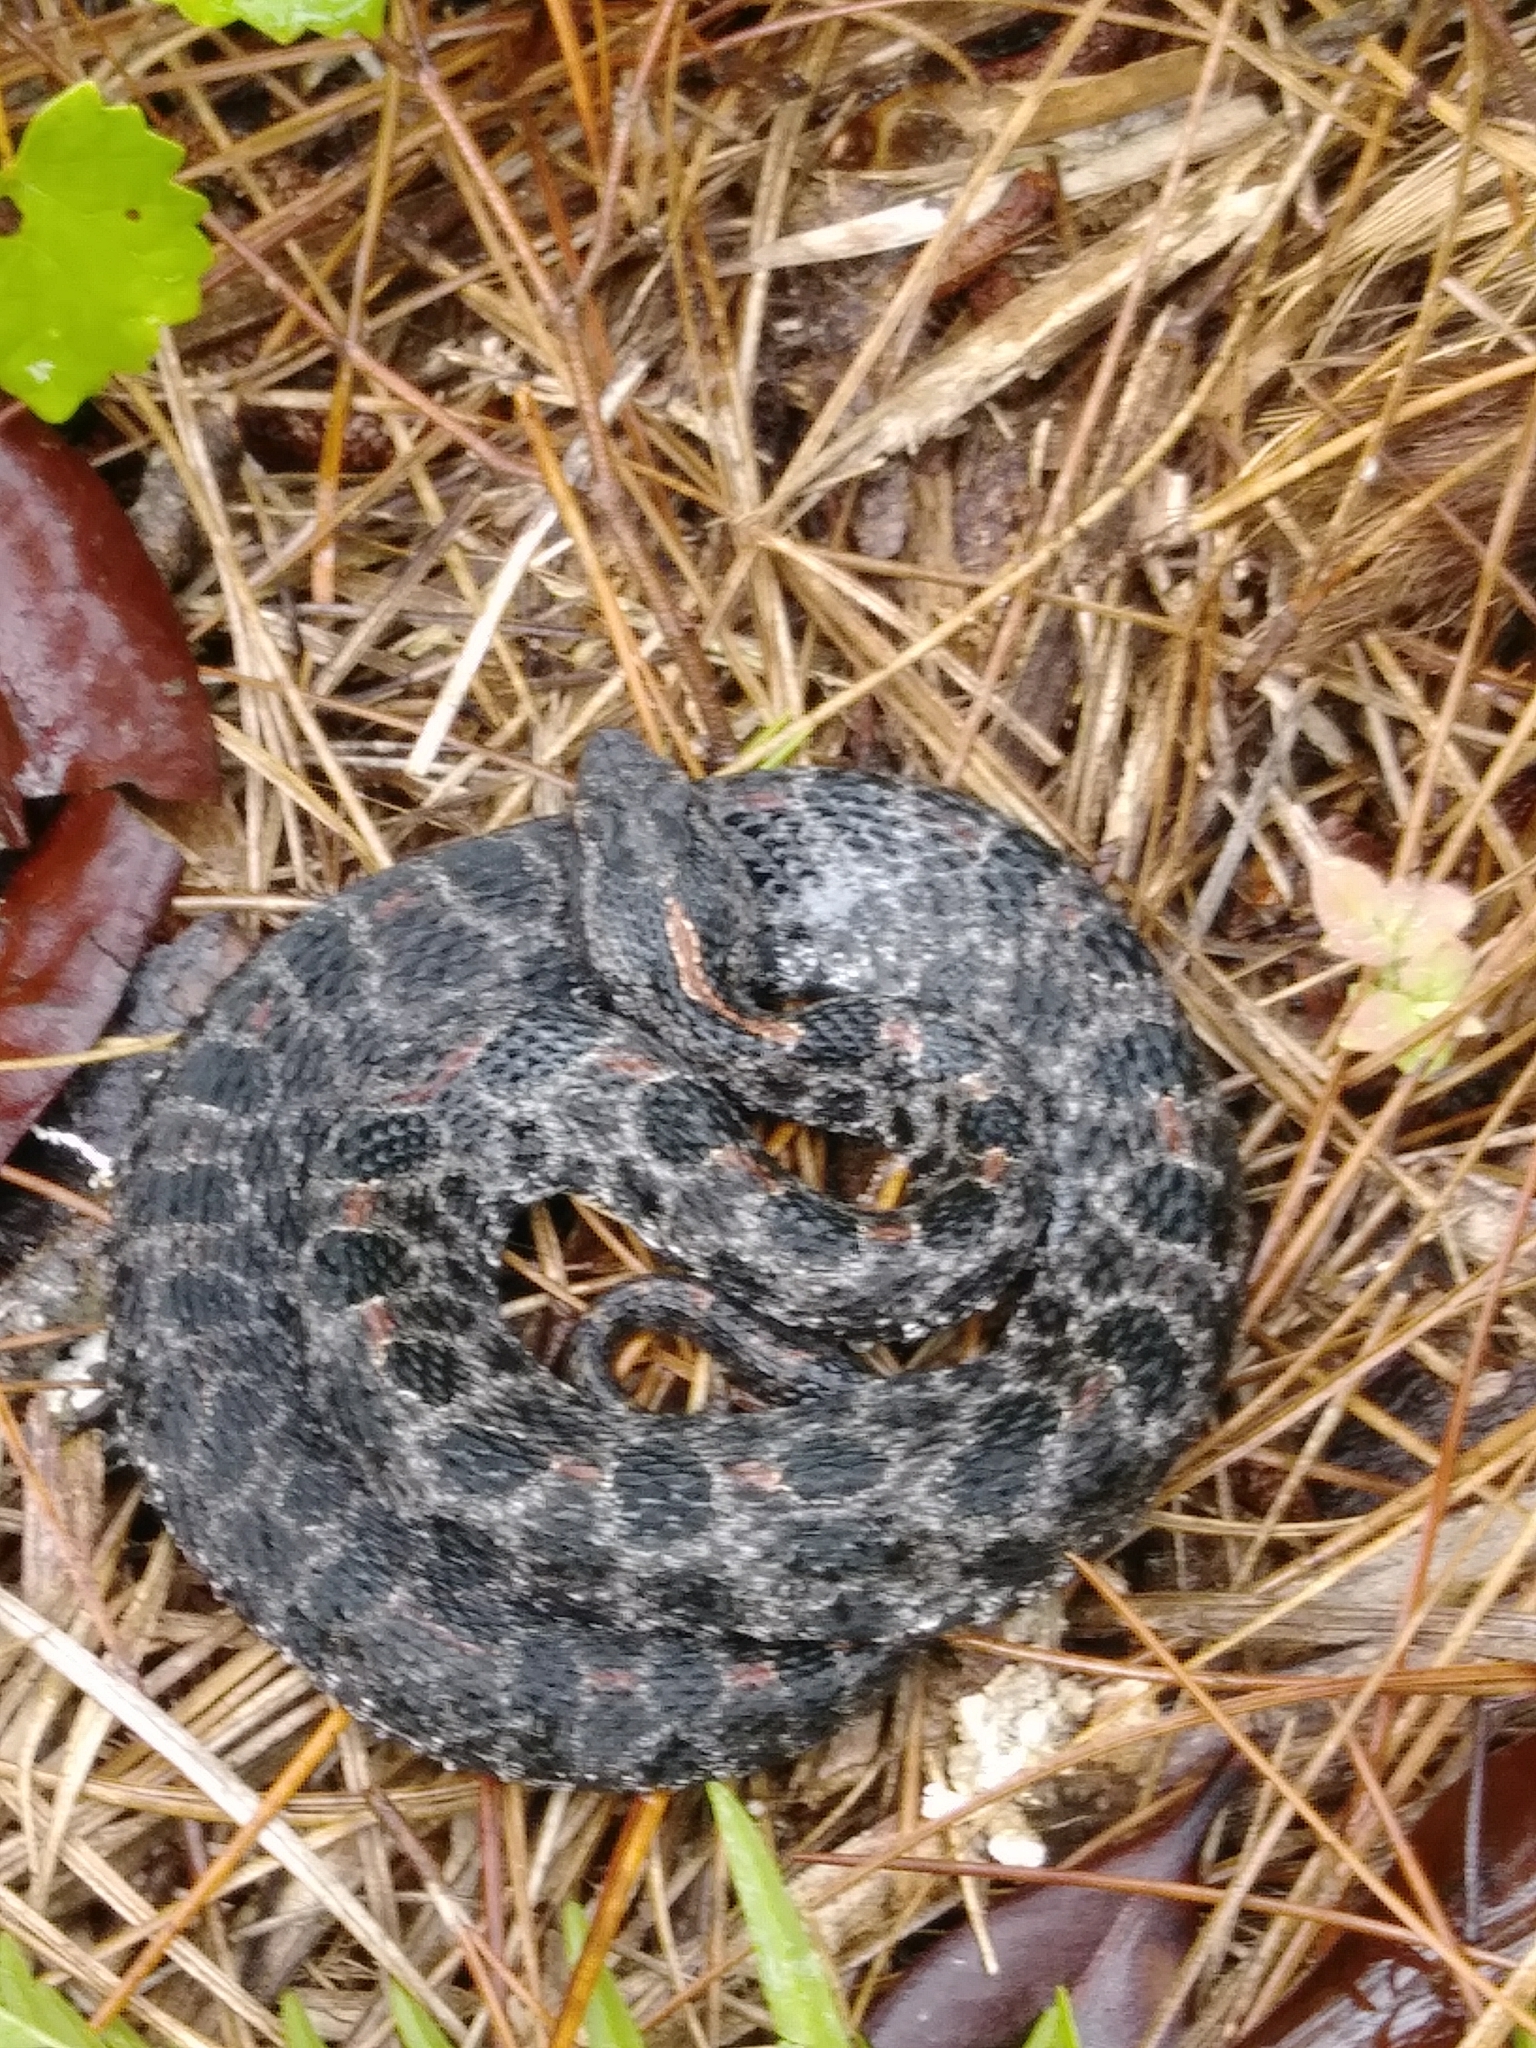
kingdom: Animalia
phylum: Chordata
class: Squamata
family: Viperidae
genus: Sistrurus
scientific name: Sistrurus miliarius
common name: Pygmy rattlesnake
